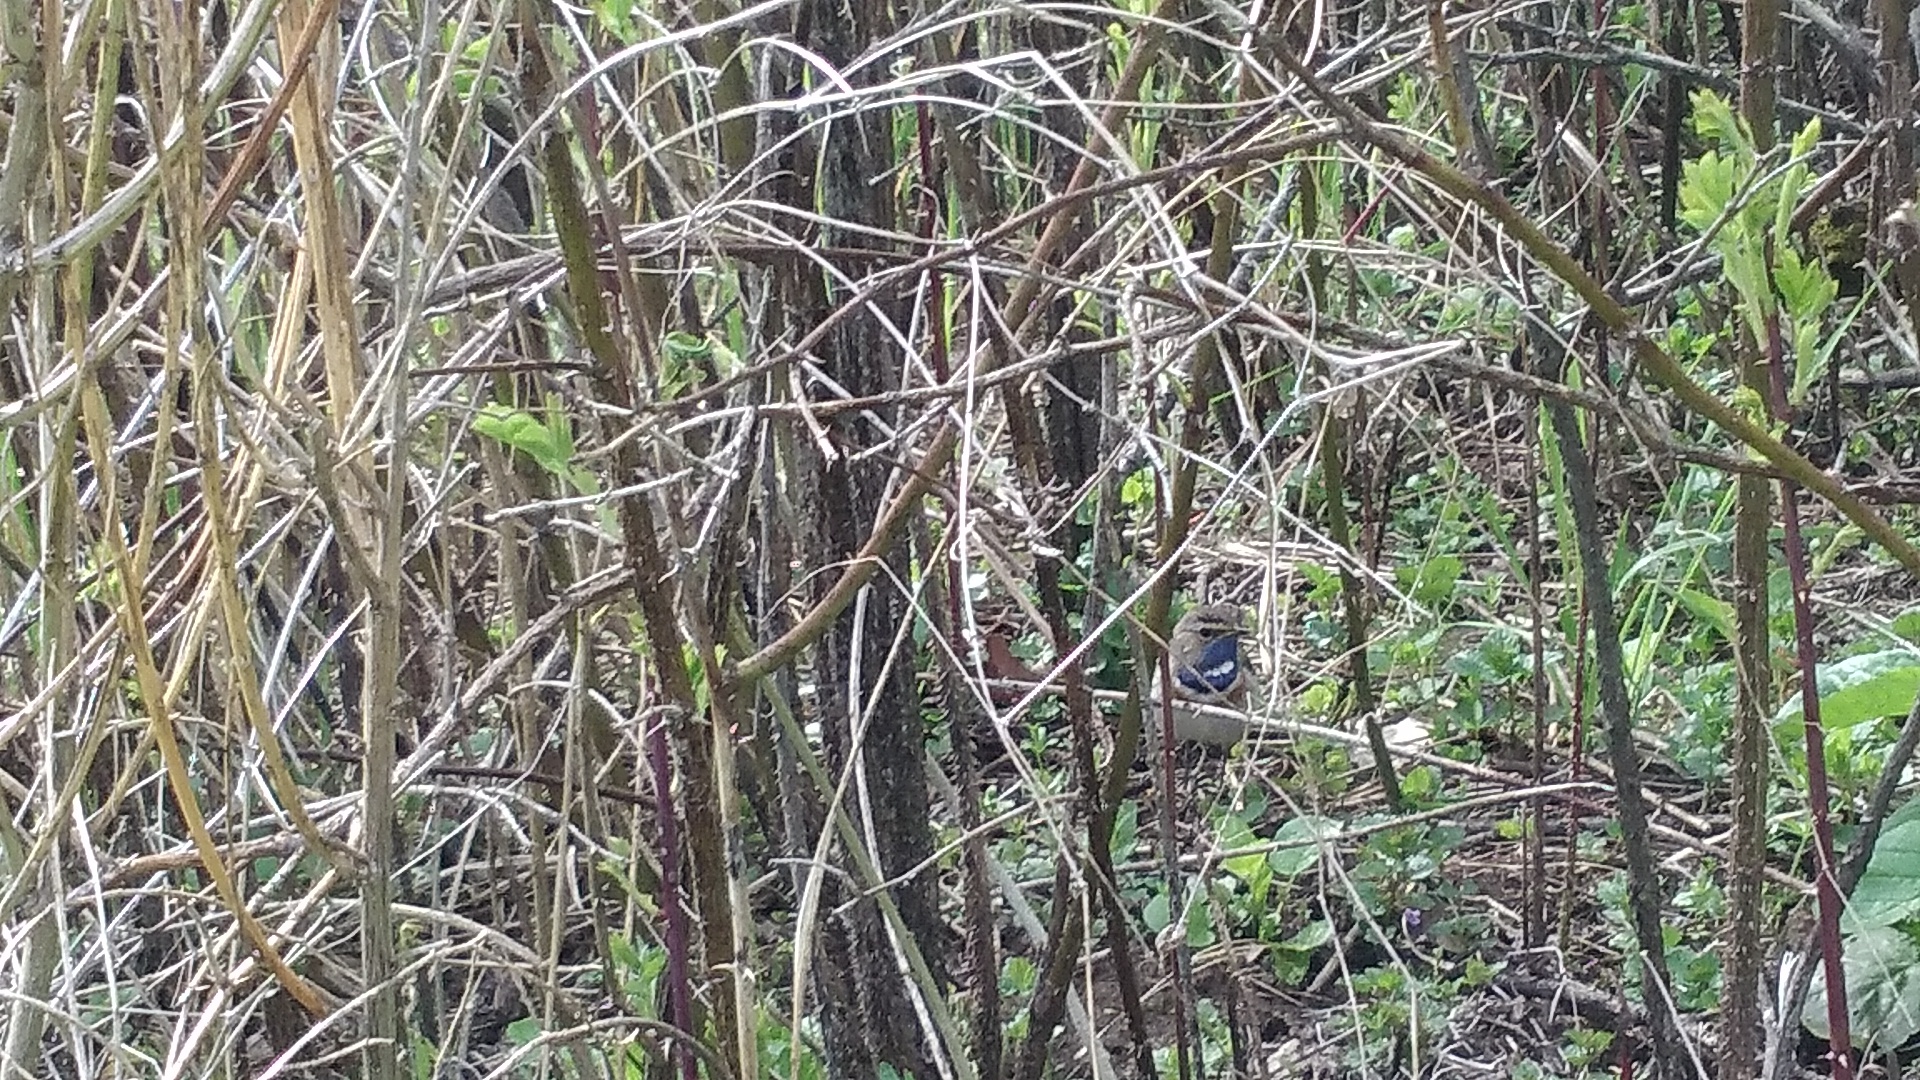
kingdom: Animalia
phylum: Chordata
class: Aves
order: Passeriformes
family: Muscicapidae
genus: Luscinia
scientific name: Luscinia svecica
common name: Bluethroat
